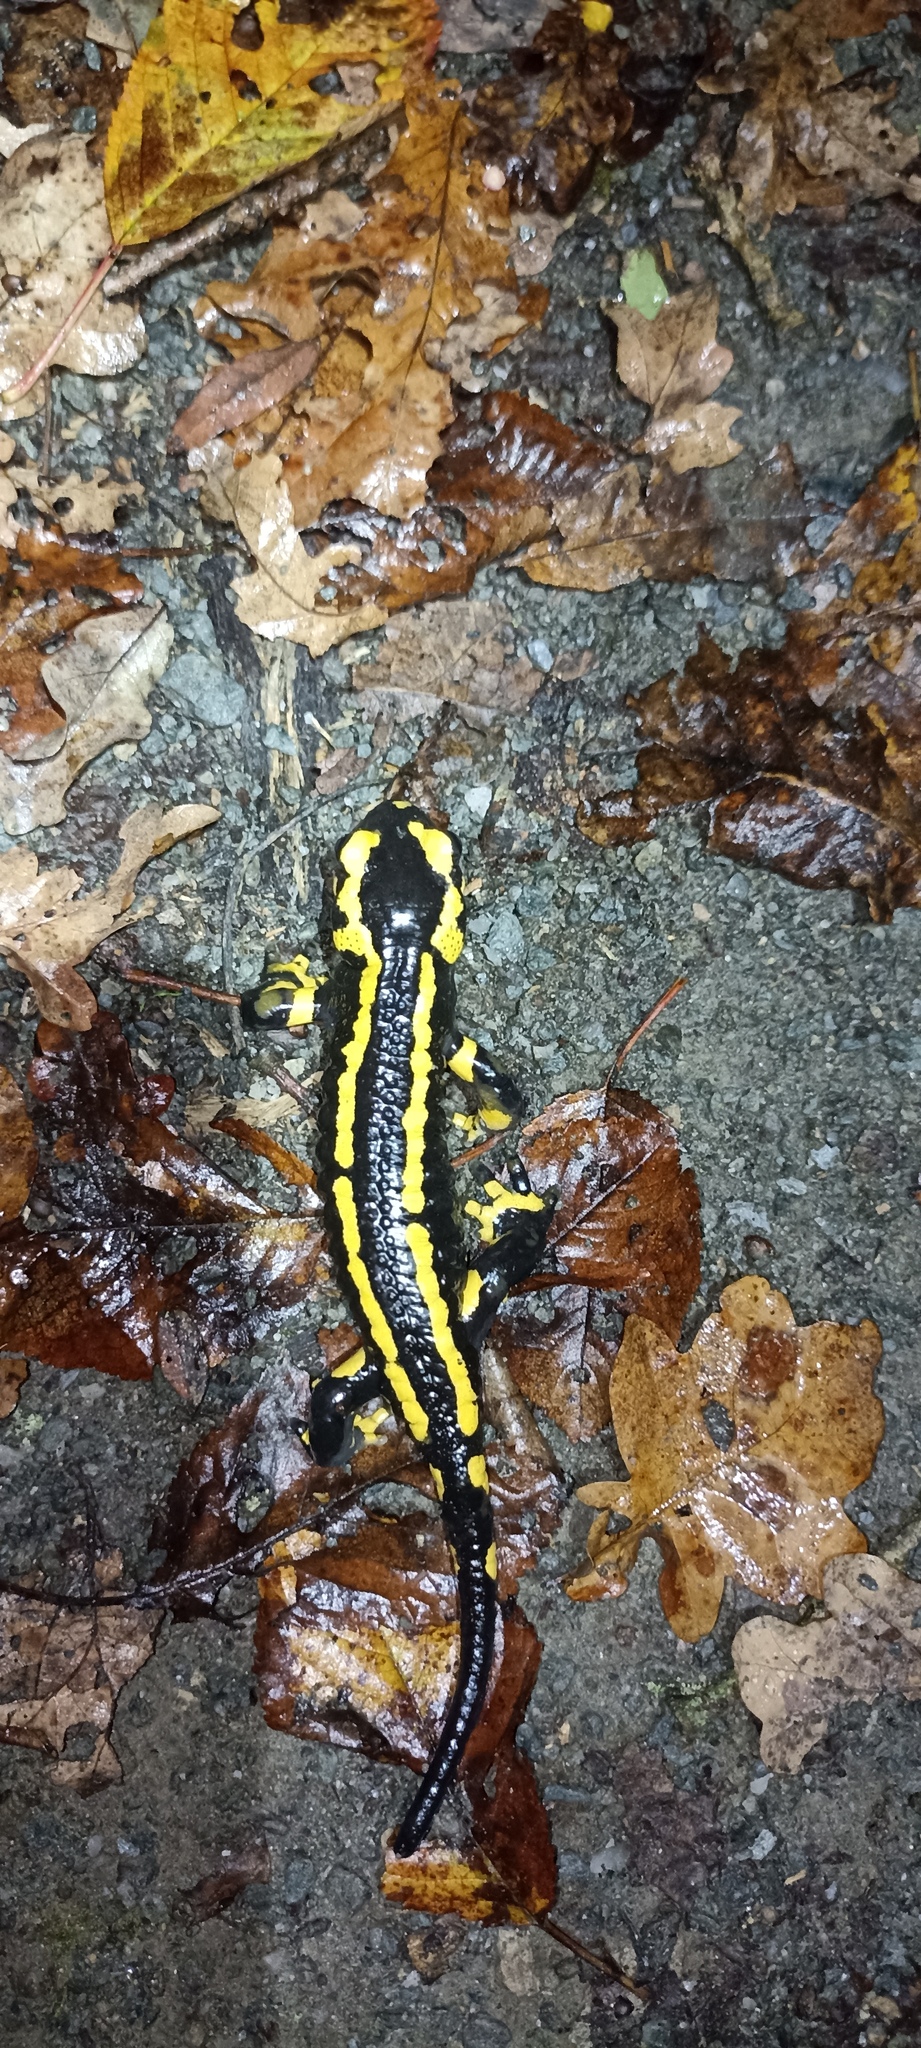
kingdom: Animalia
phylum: Chordata
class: Amphibia
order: Caudata
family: Salamandridae
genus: Salamandra
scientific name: Salamandra salamandra
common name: Fire salamander
